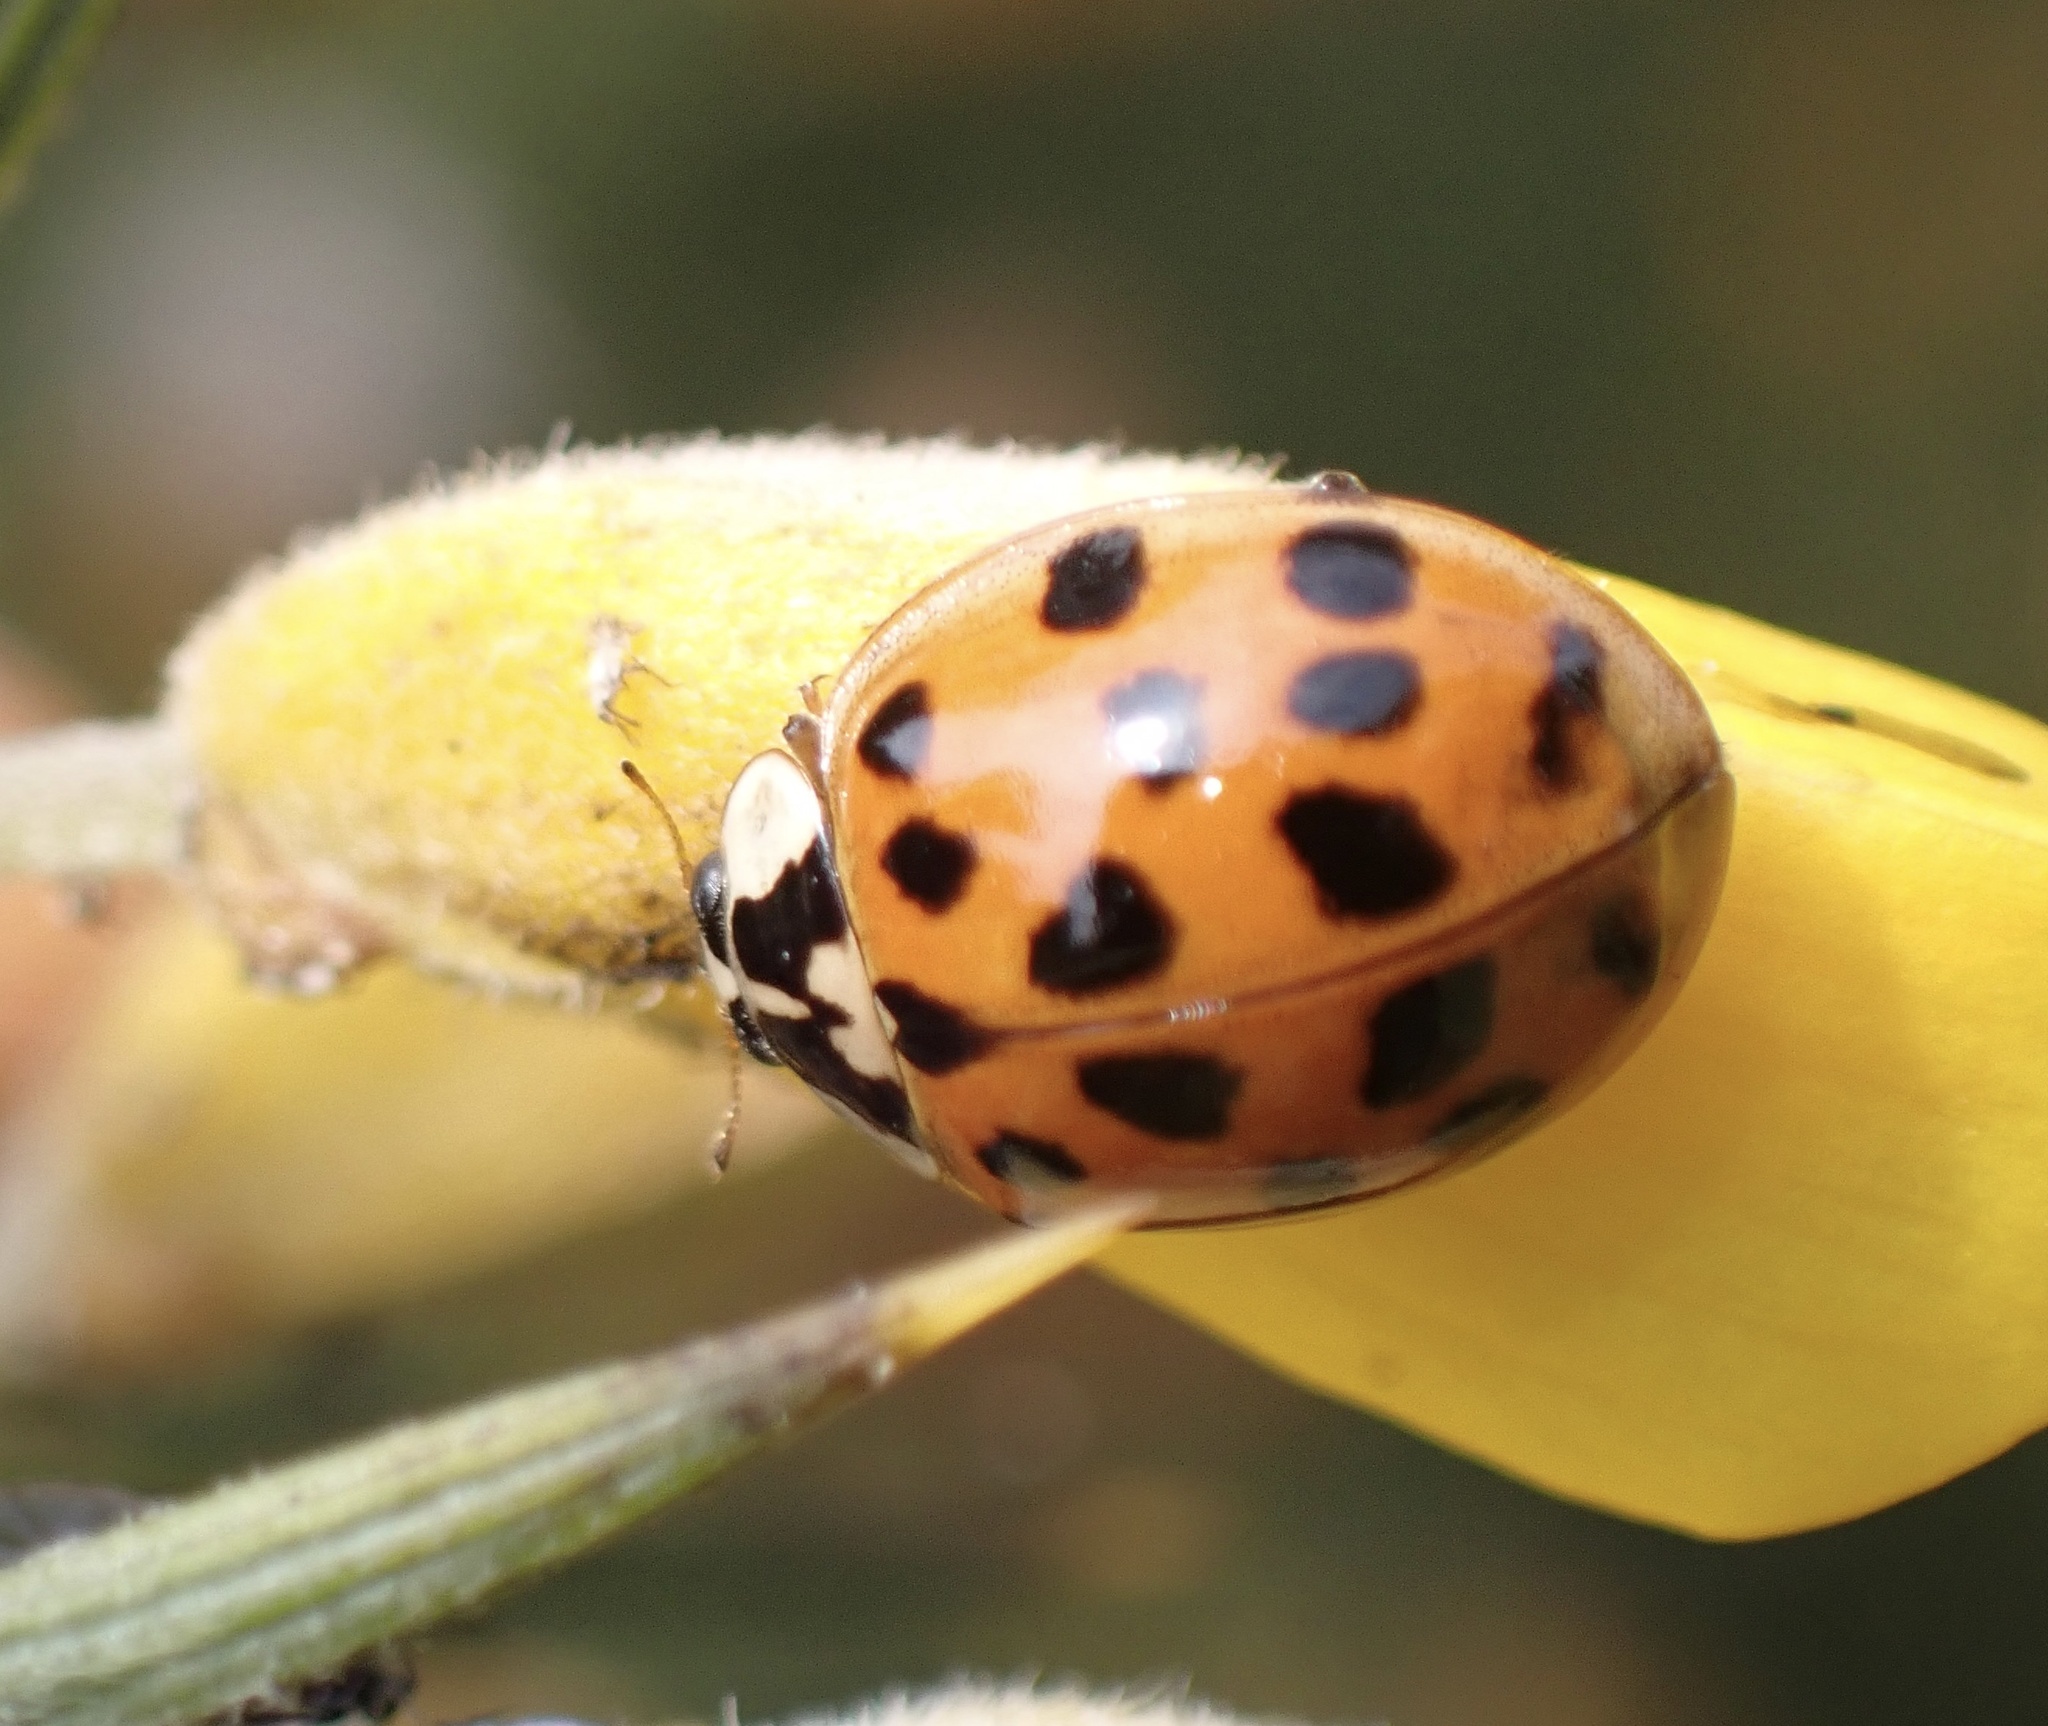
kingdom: Animalia
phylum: Arthropoda
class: Insecta
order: Coleoptera
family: Coccinellidae
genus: Harmonia
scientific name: Harmonia axyridis
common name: Harlequin ladybird
